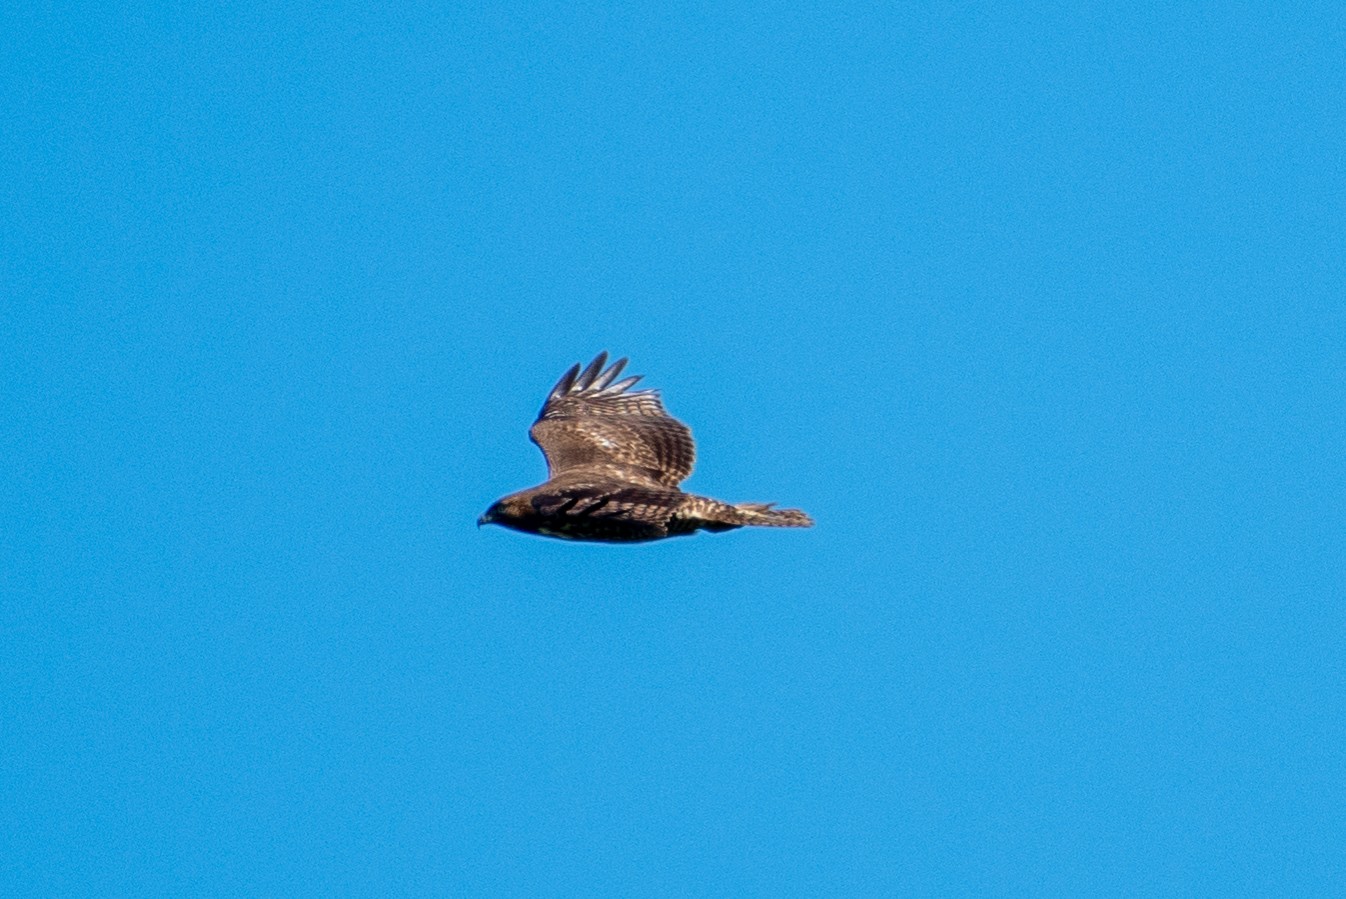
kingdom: Animalia
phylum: Chordata
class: Aves
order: Accipitriformes
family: Accipitridae
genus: Buteo
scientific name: Buteo jamaicensis
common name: Red-tailed hawk
